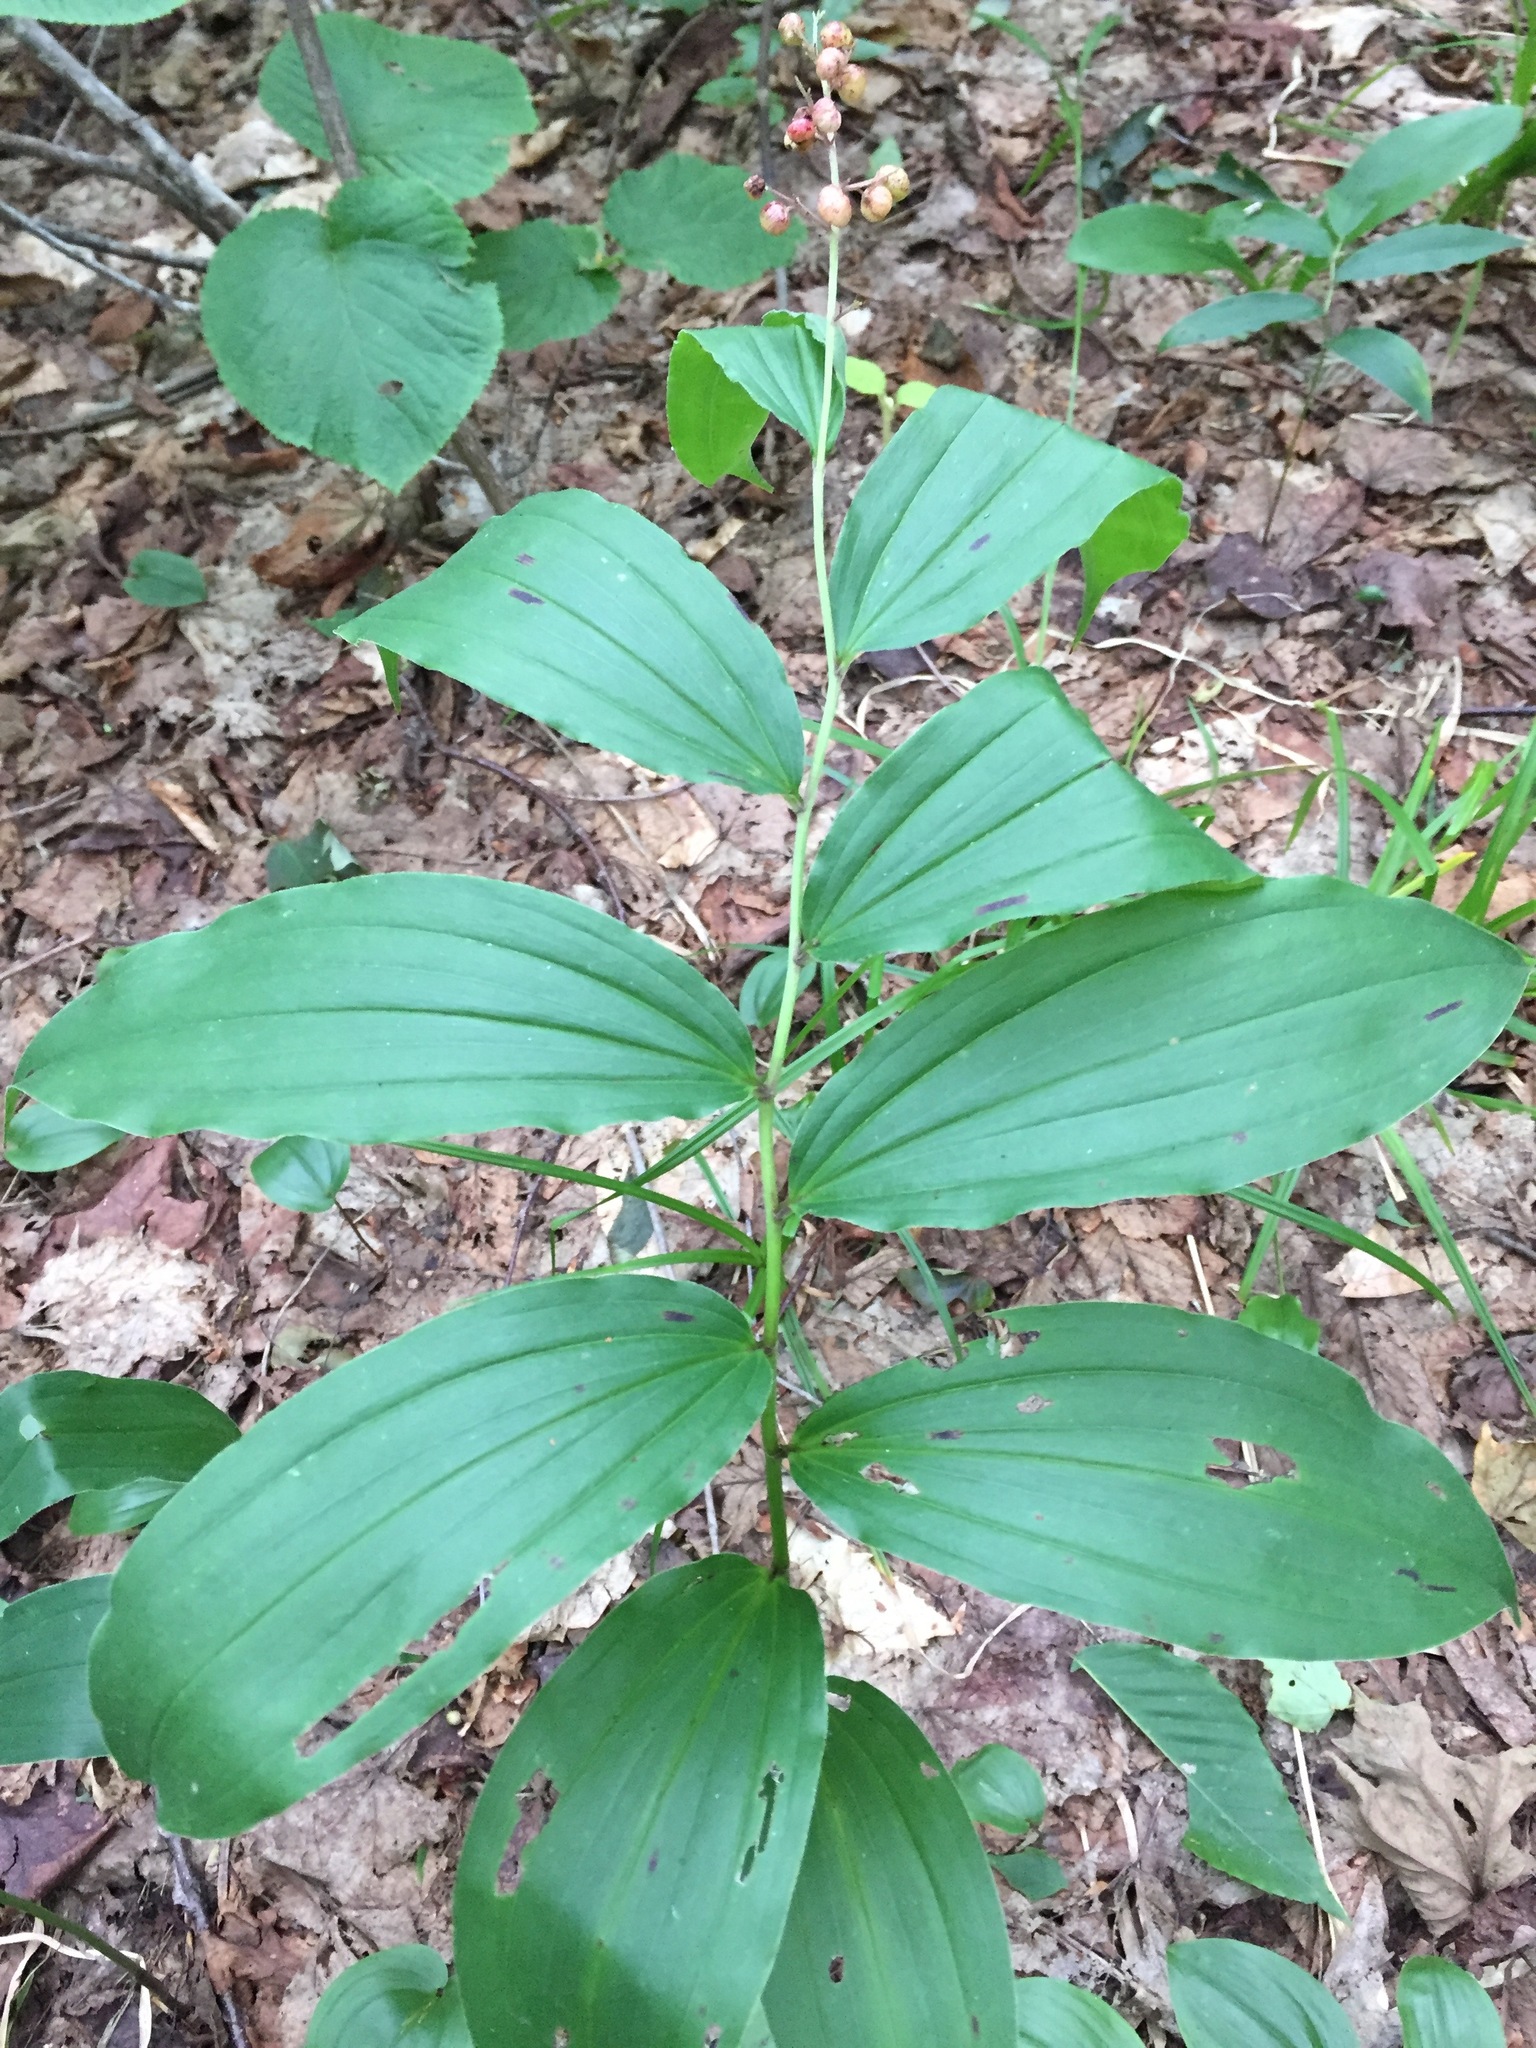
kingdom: Plantae
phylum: Tracheophyta
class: Liliopsida
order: Asparagales
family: Asparagaceae
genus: Maianthemum
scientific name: Maianthemum racemosum
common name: False spikenard
